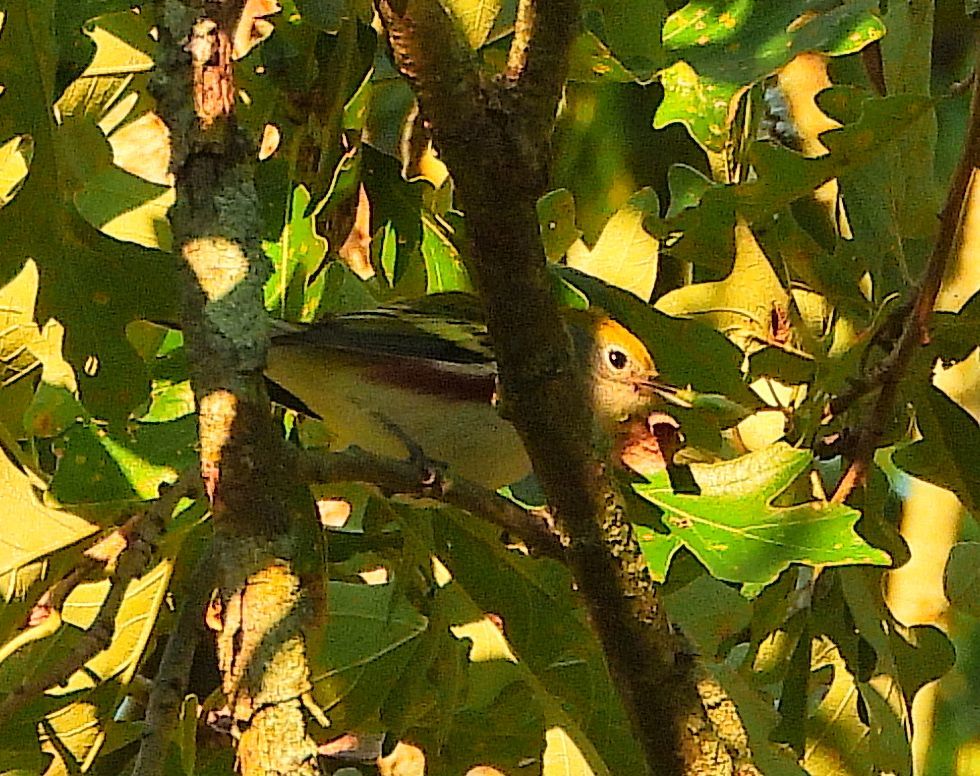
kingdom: Animalia
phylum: Chordata
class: Aves
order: Passeriformes
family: Parulidae
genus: Setophaga
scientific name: Setophaga pensylvanica
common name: Chestnut-sided warbler
